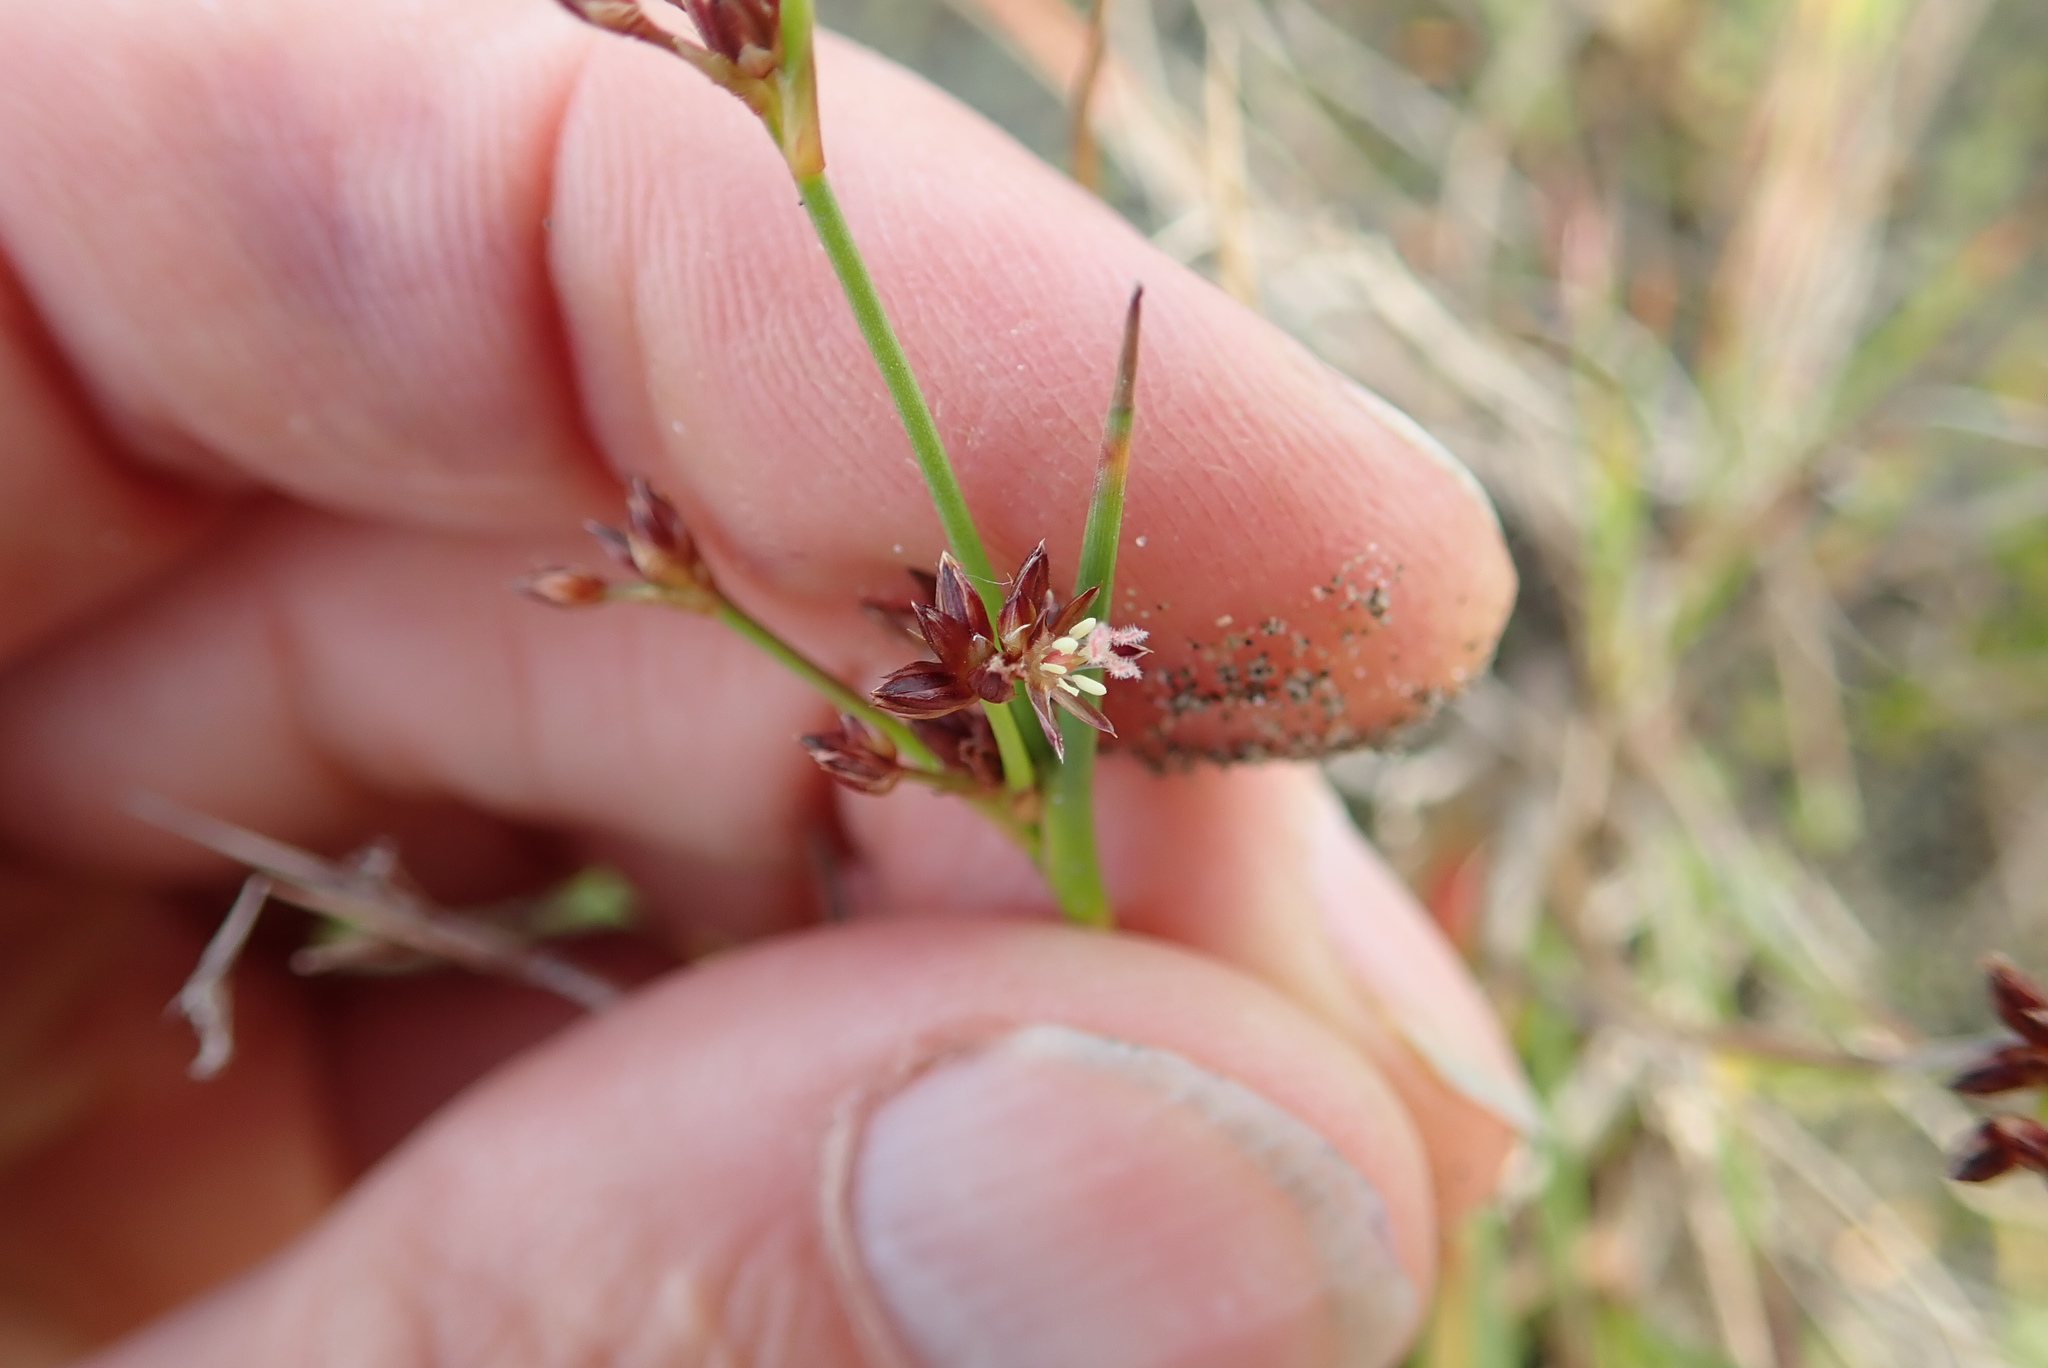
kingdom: Plantae
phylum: Tracheophyta
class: Liliopsida
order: Poales
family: Juncaceae
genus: Juncus
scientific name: Juncus articulatus
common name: Jointed rush
